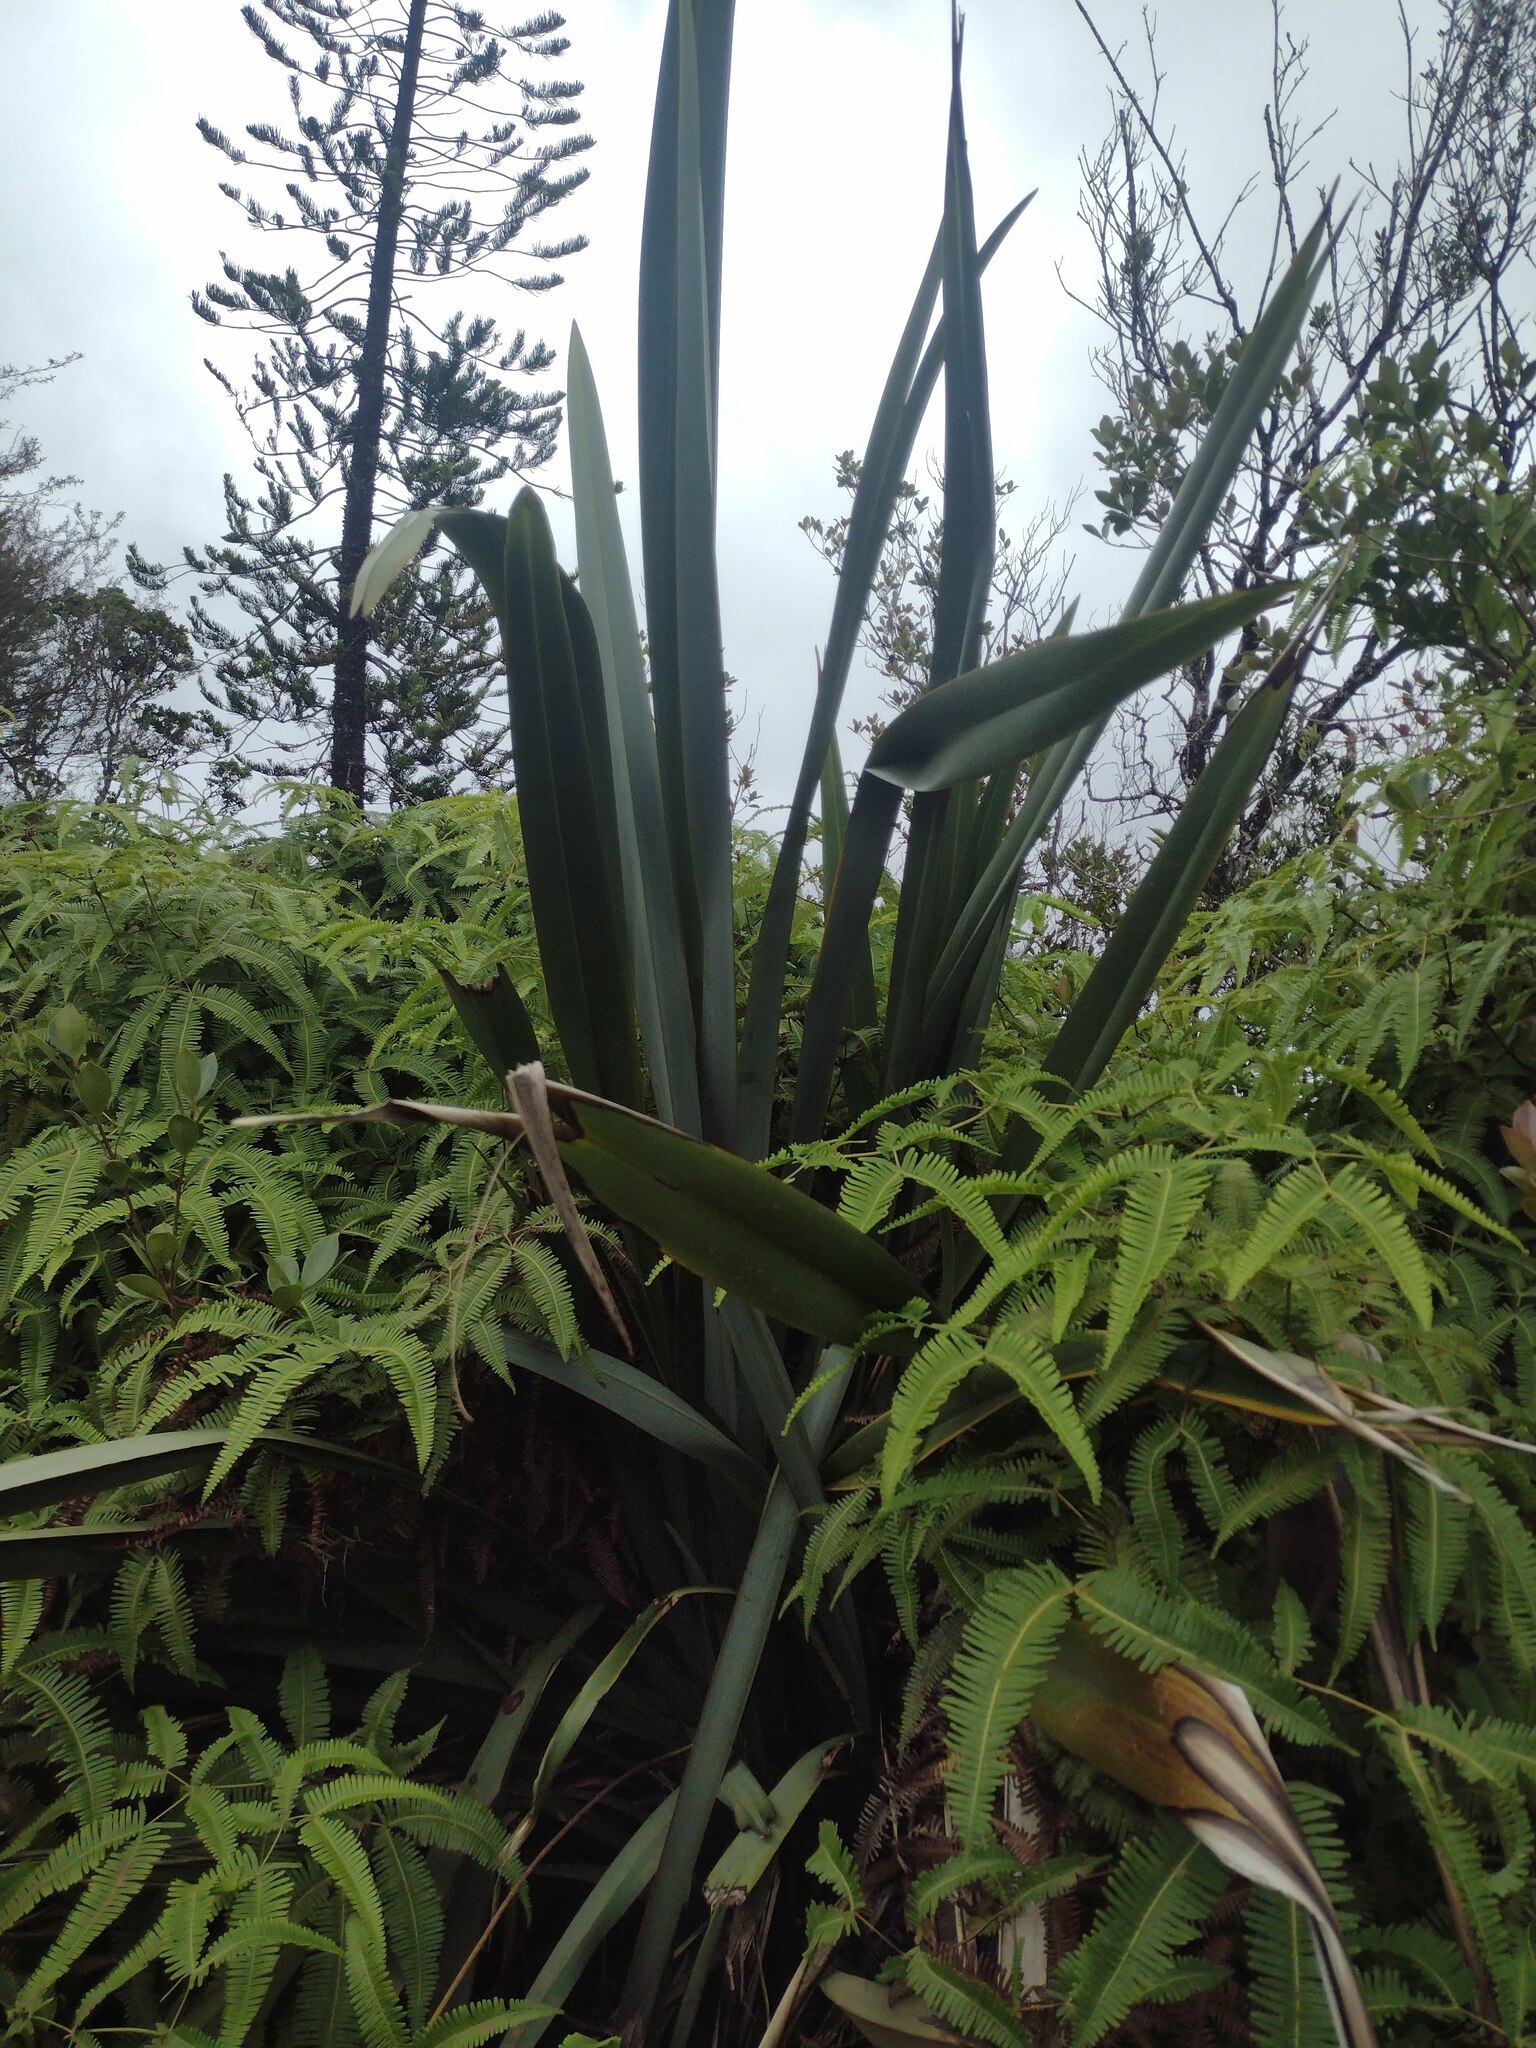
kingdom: Plantae
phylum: Tracheophyta
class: Liliopsida
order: Asparagales
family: Asphodelaceae
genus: Phormium
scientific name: Phormium tenax
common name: New zealand flax
